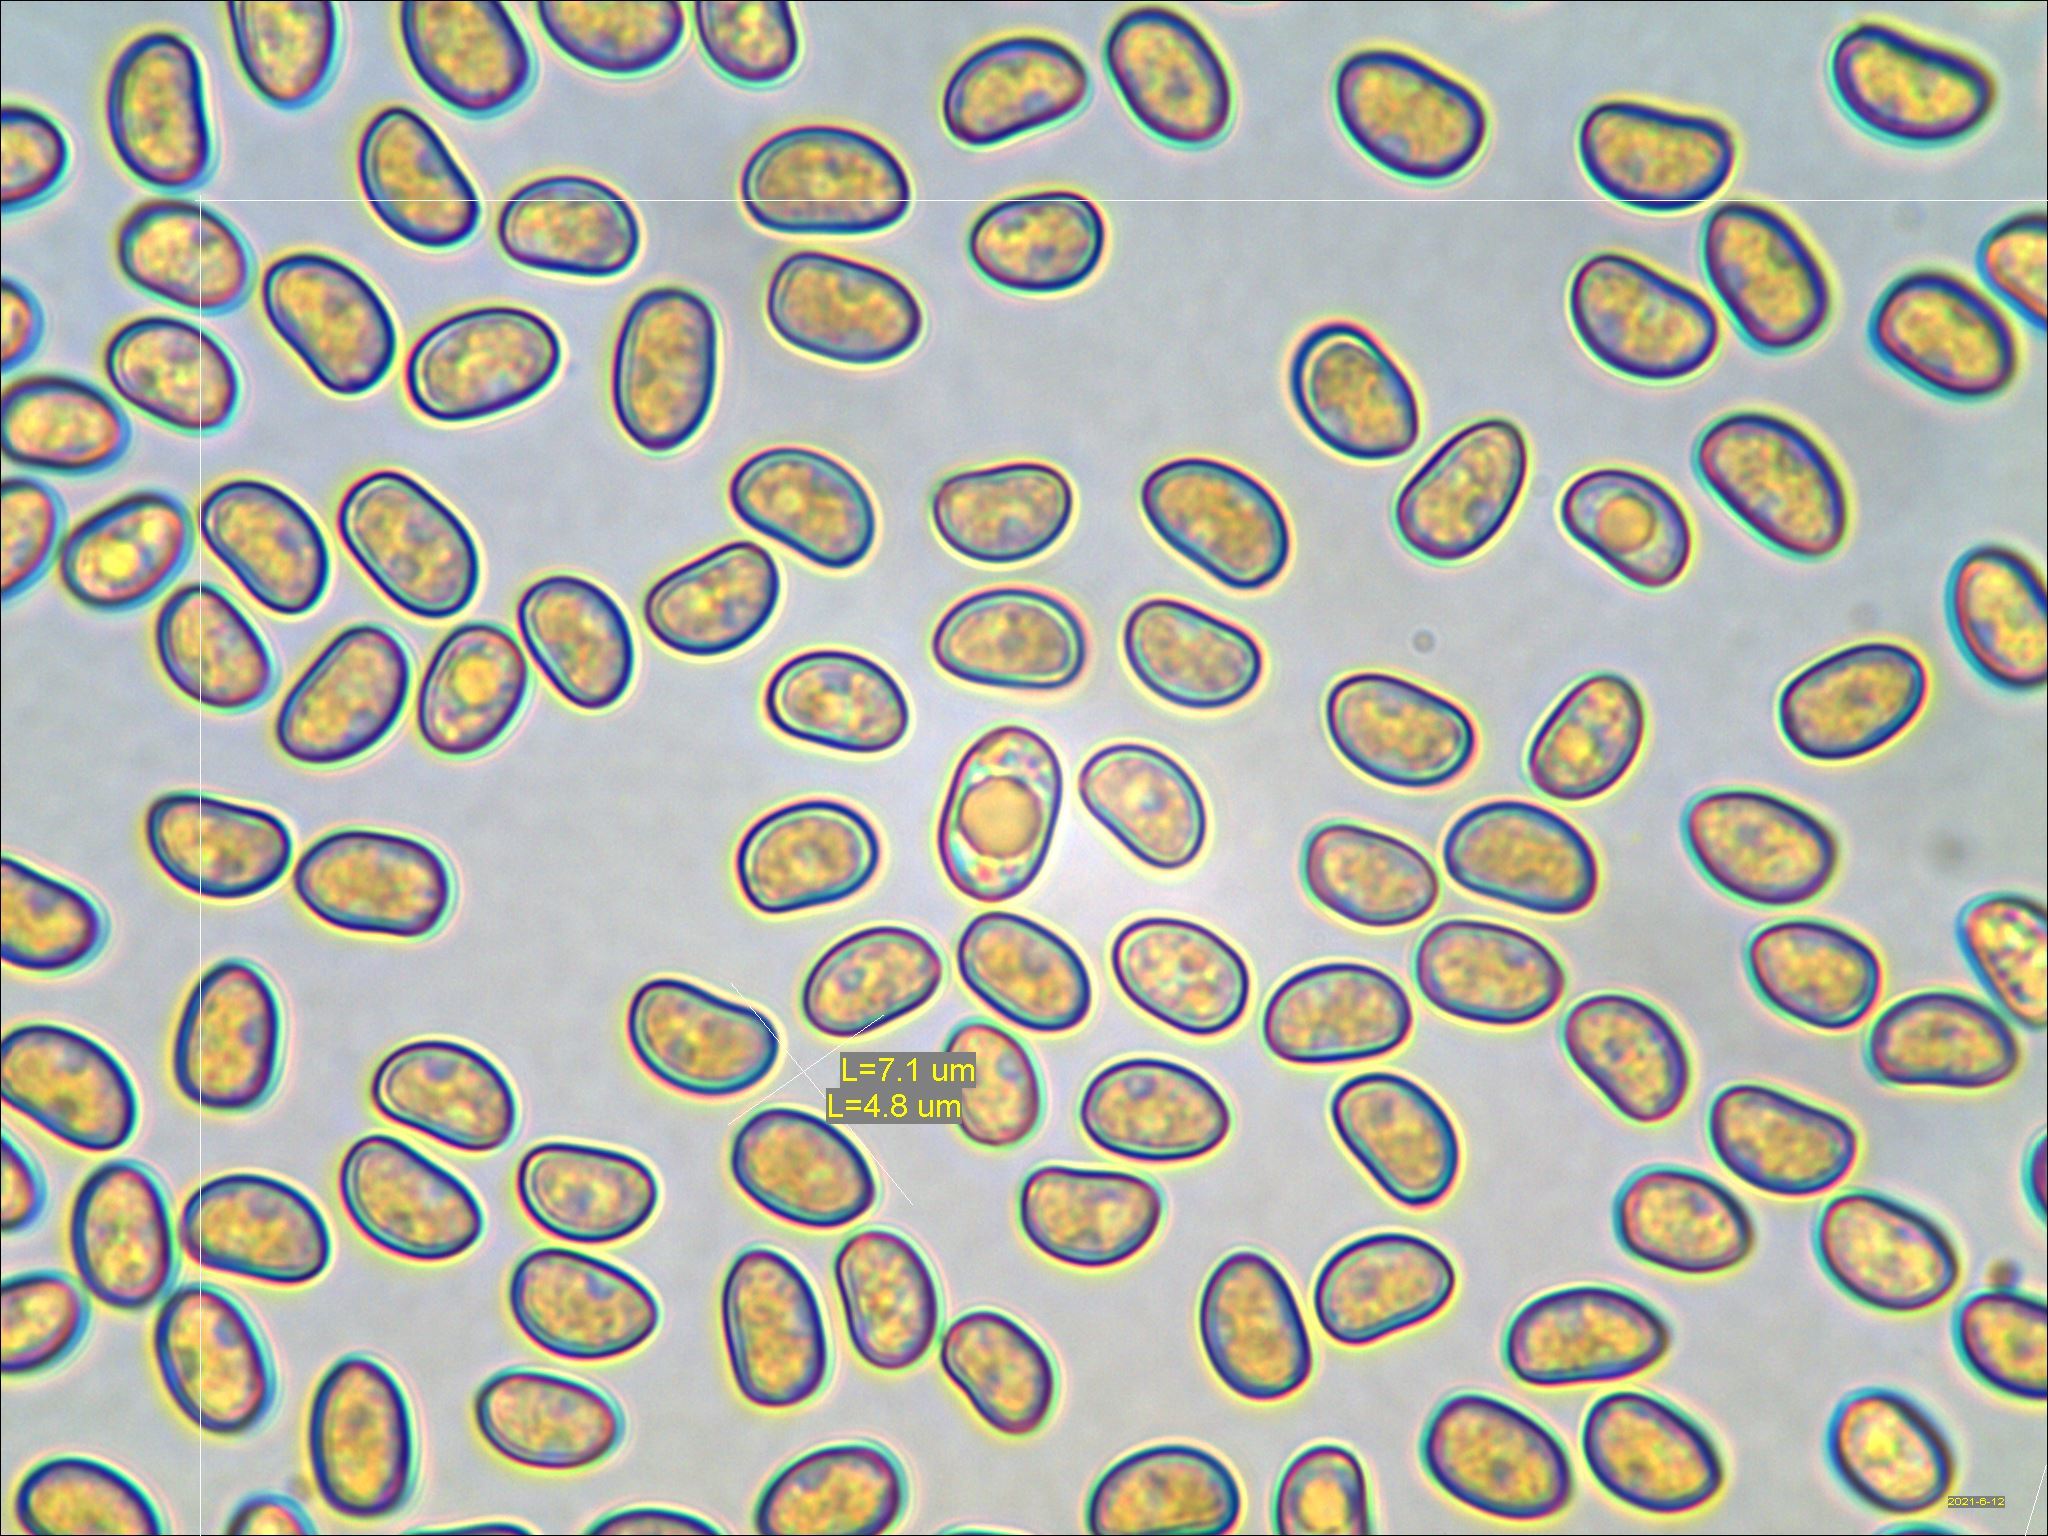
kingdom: Fungi
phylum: Basidiomycota
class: Agaricomycetes
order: Agaricales
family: Crepidotaceae
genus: Simocybe
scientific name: Simocybe serrulata
